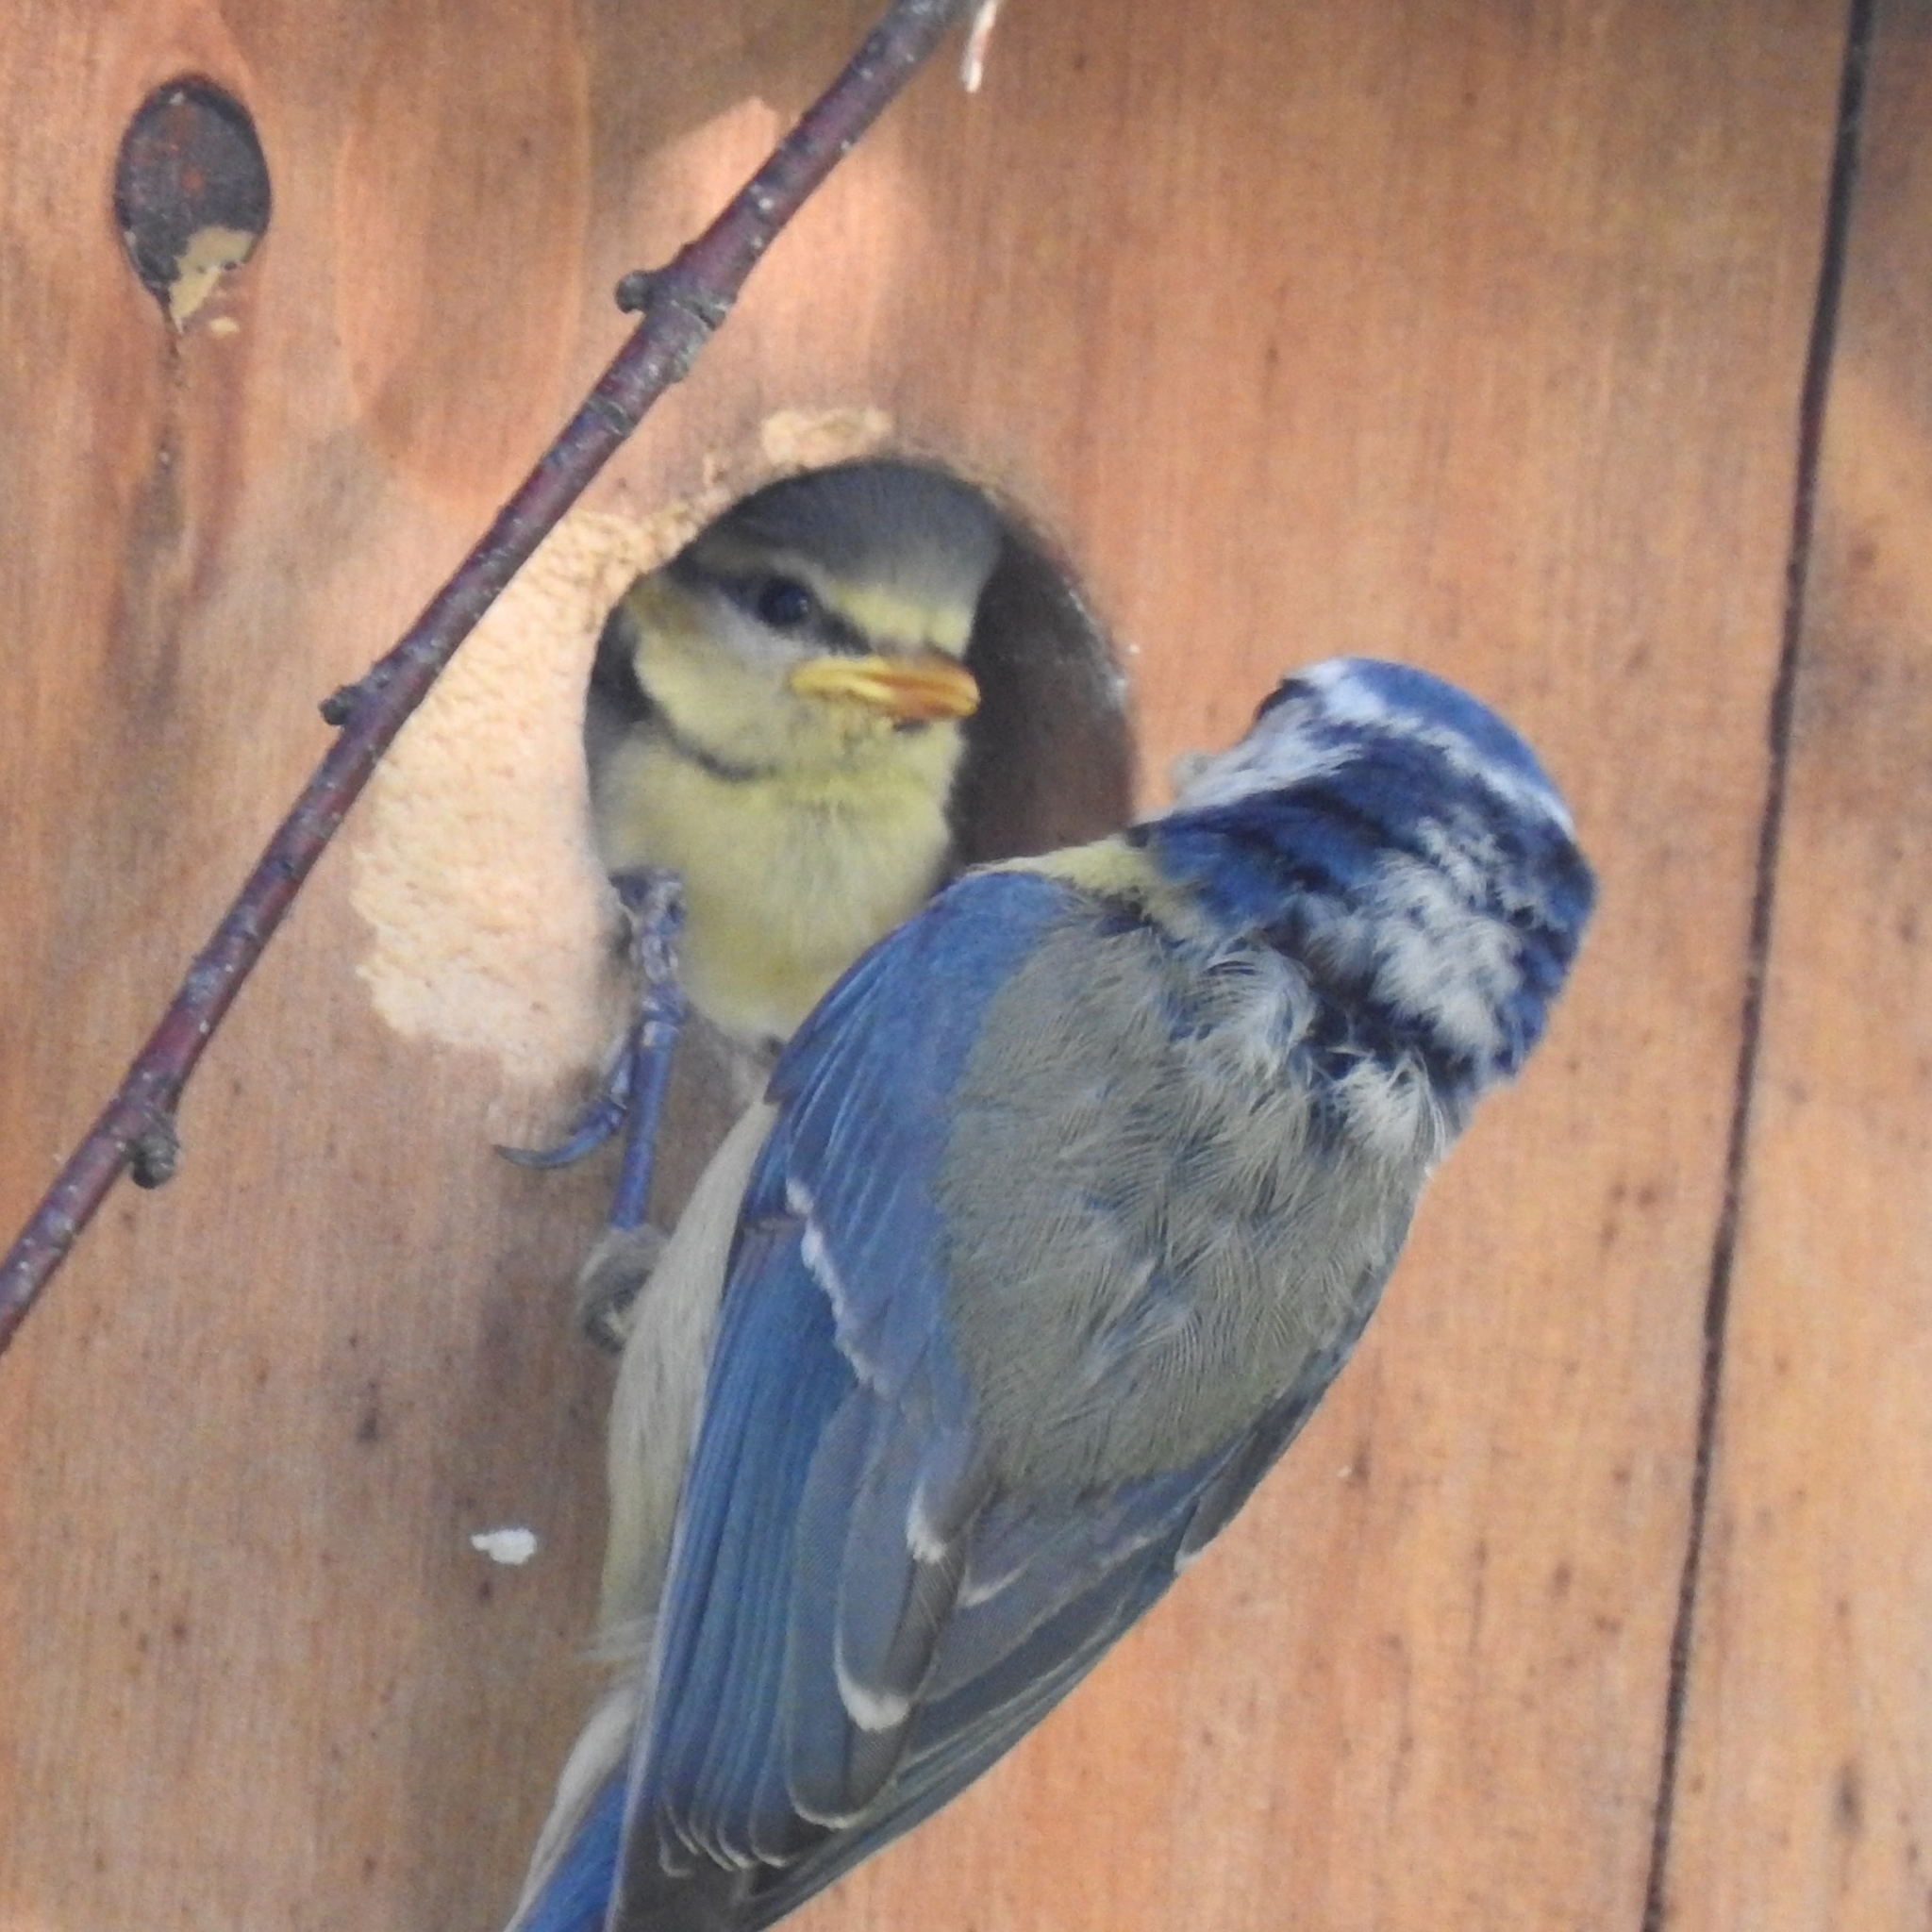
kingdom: Animalia
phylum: Chordata
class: Aves
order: Passeriformes
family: Paridae
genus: Cyanistes
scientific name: Cyanistes caeruleus
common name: Eurasian blue tit
